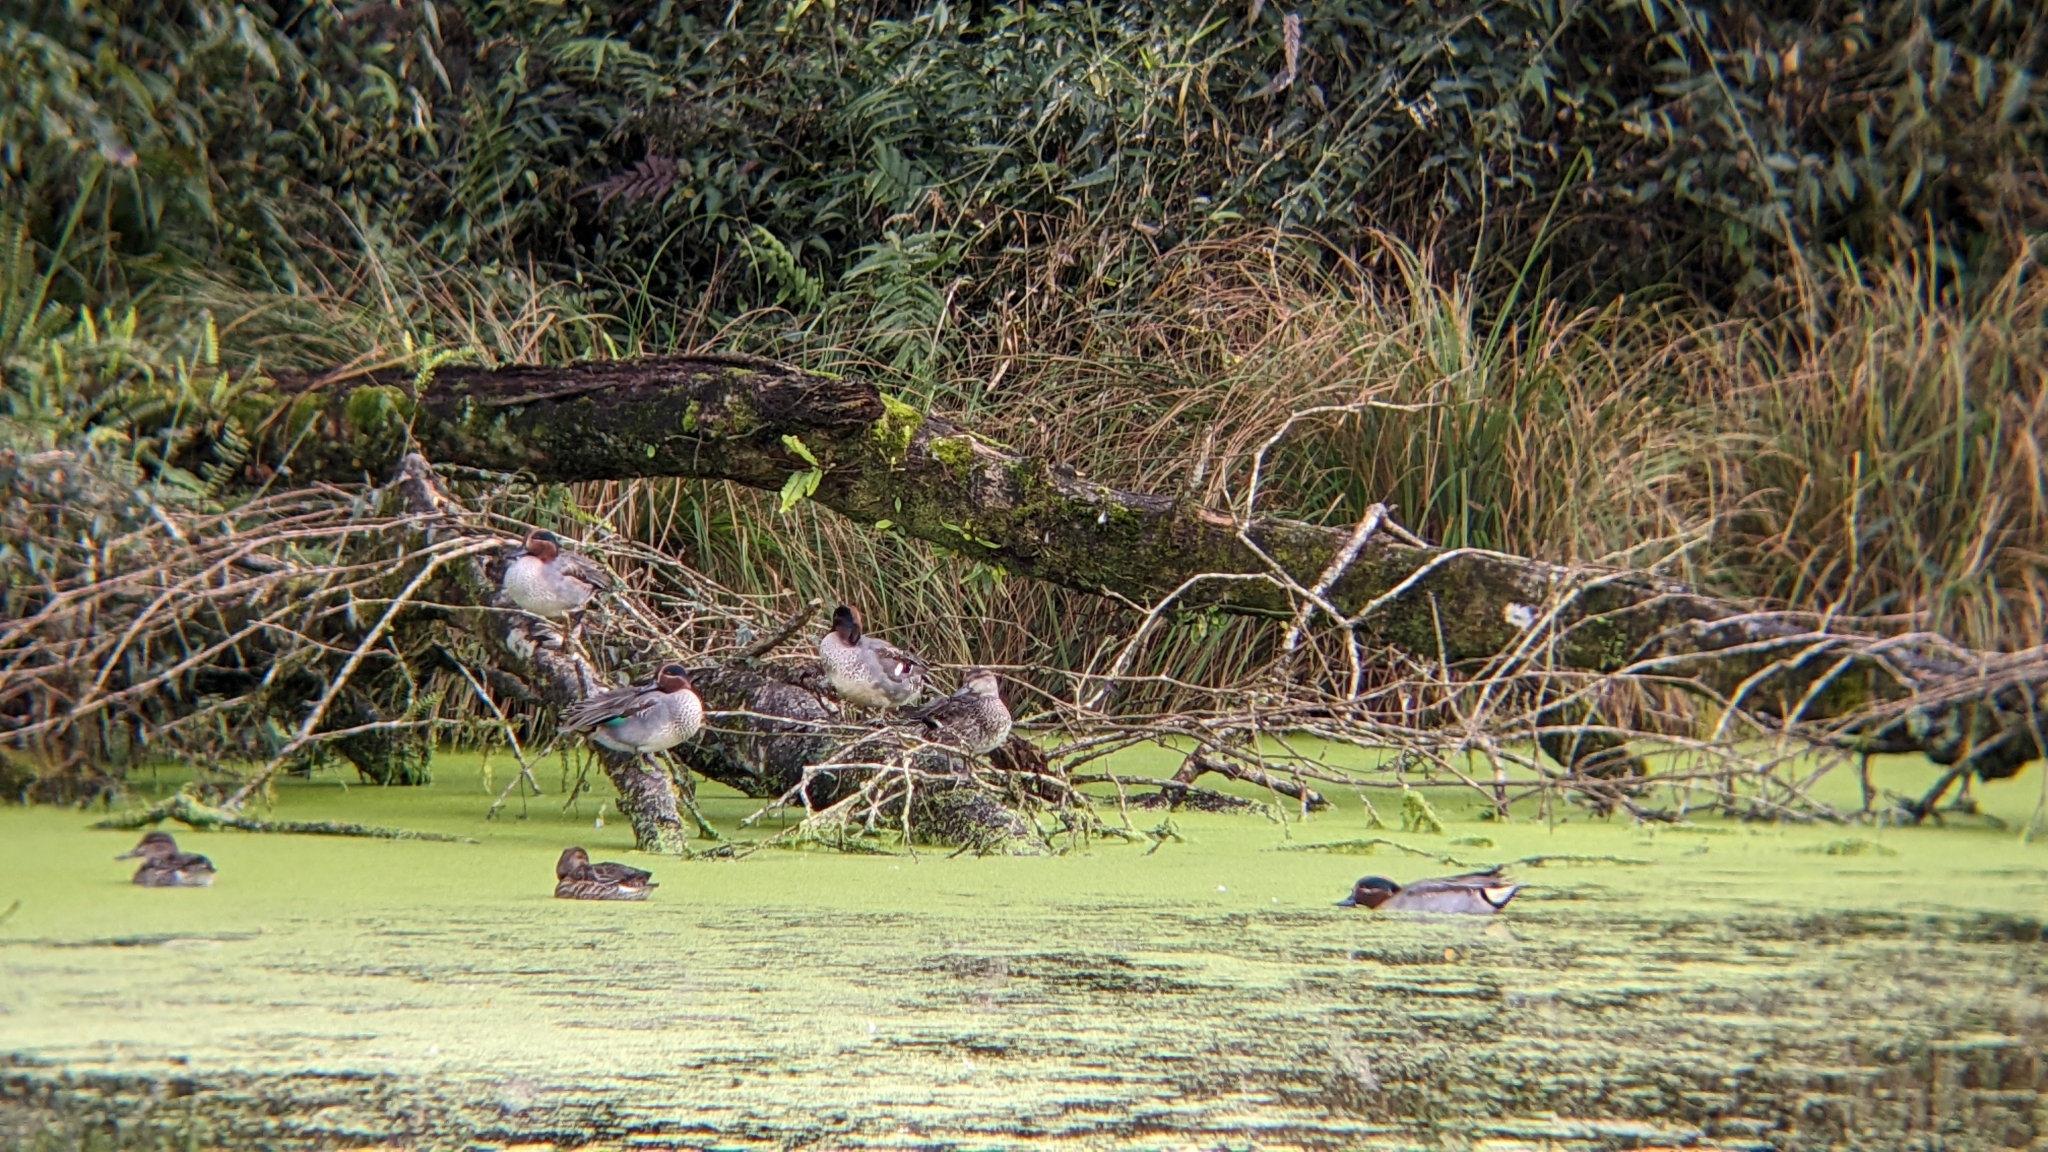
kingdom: Animalia
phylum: Chordata
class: Aves
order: Anseriformes
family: Anatidae
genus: Anas
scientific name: Anas crecca
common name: Eurasian teal
